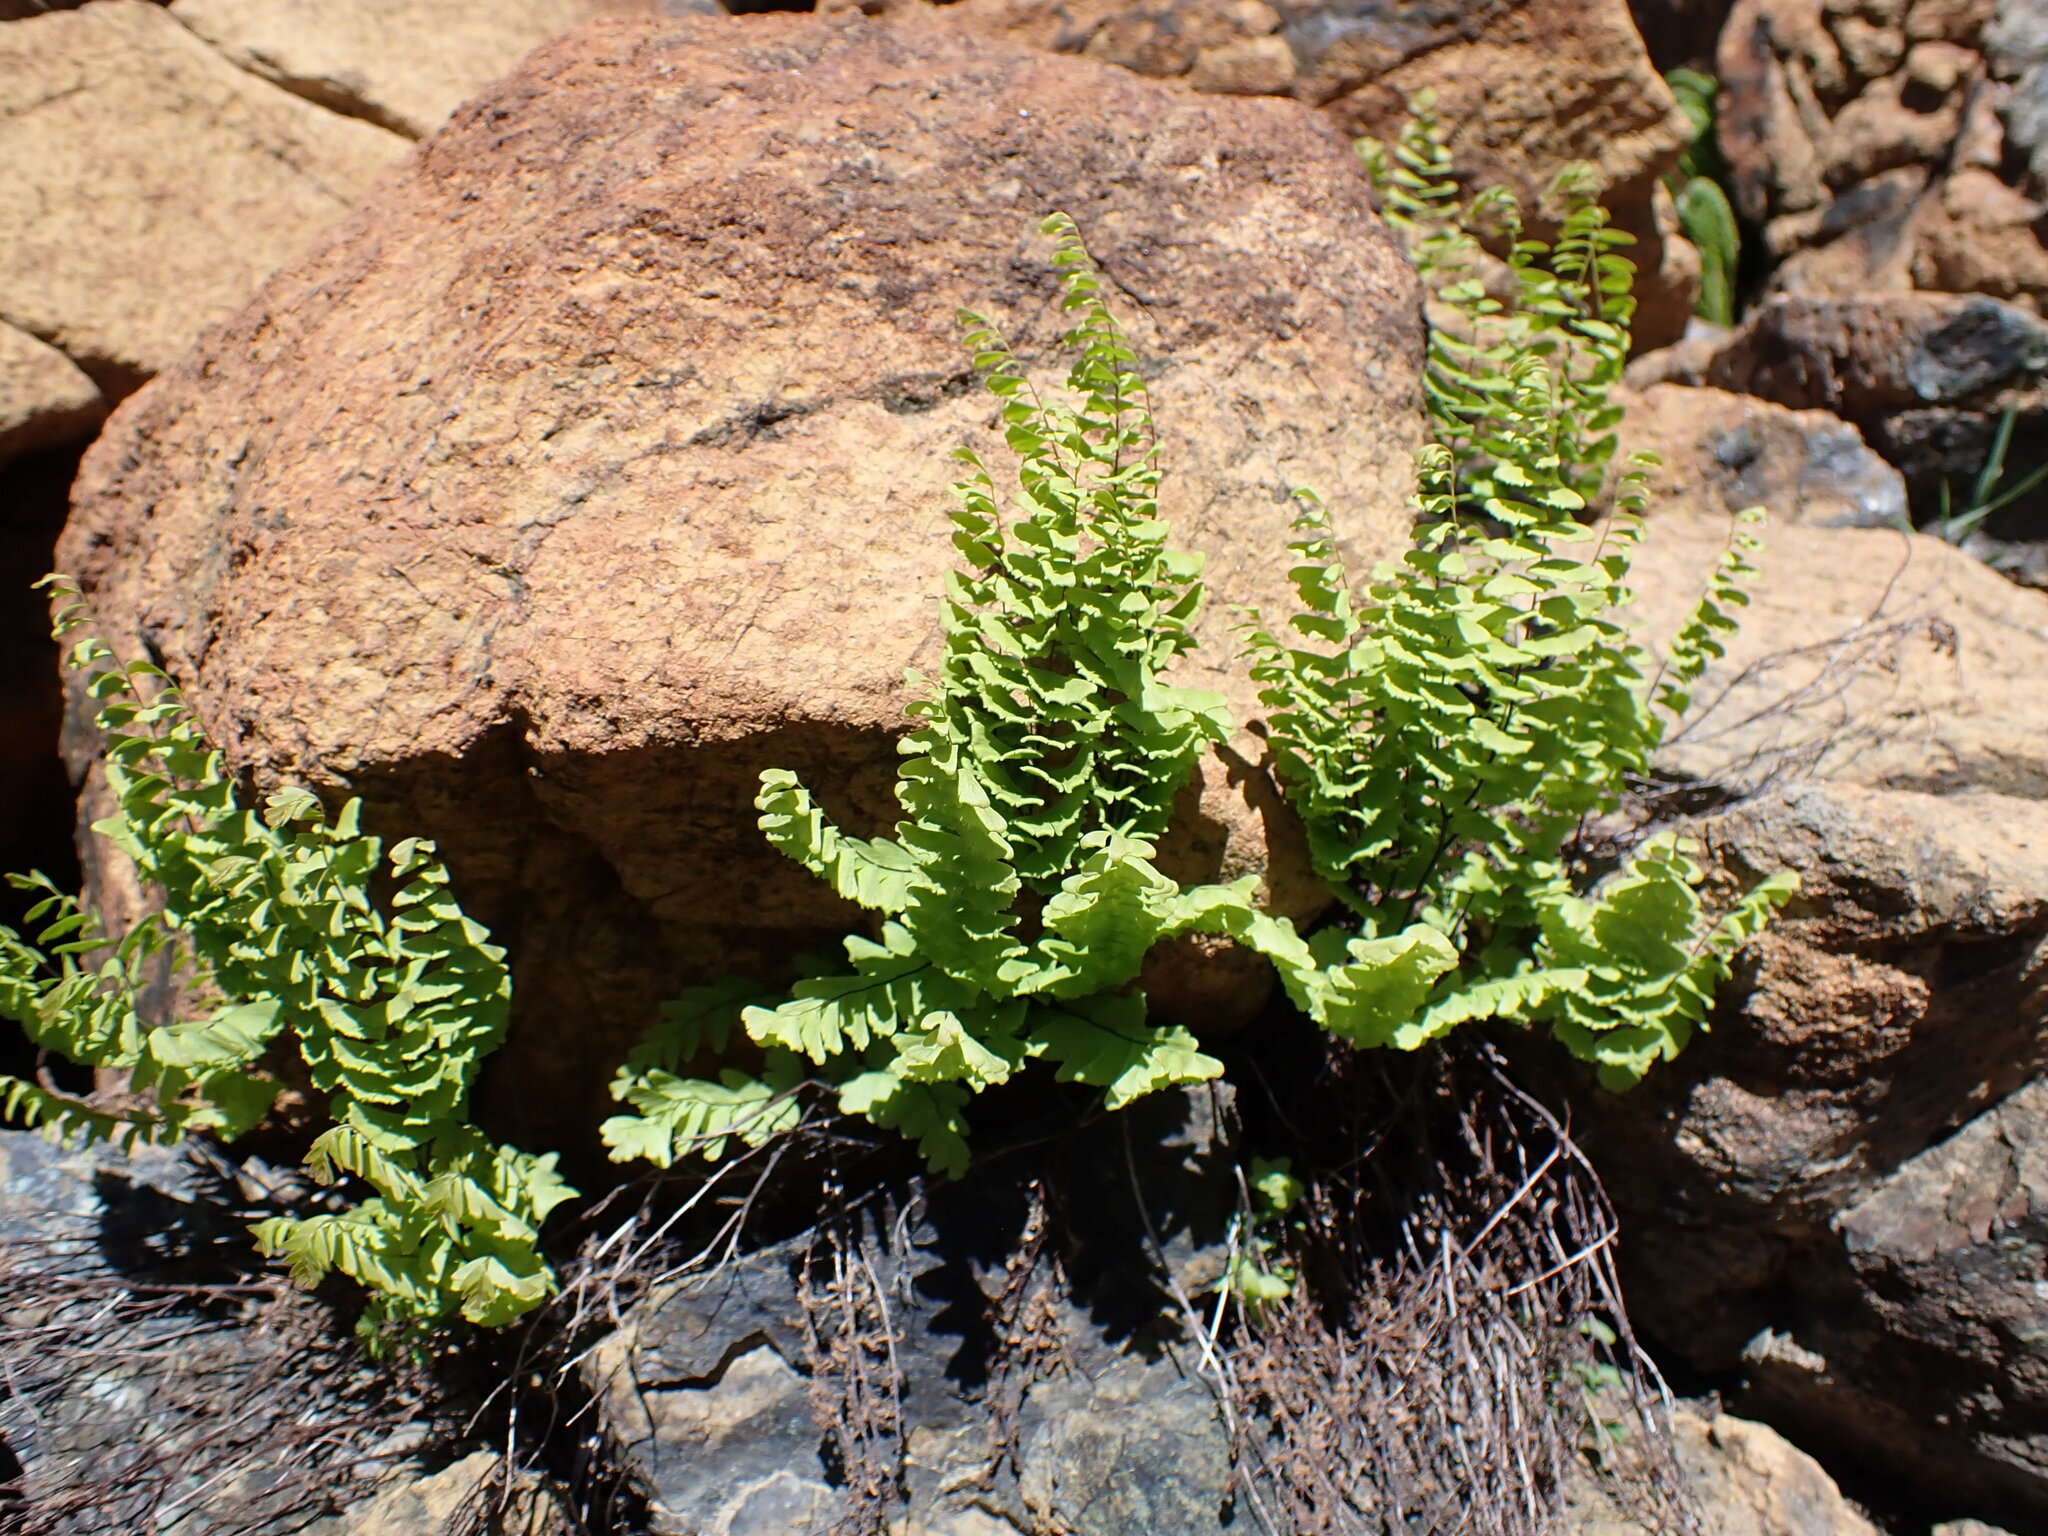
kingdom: Plantae
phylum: Tracheophyta
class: Polypodiopsida
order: Polypodiales
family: Pteridaceae
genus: Adiantum
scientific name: Adiantum aleuticum
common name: Aleutian maidenhair fern
